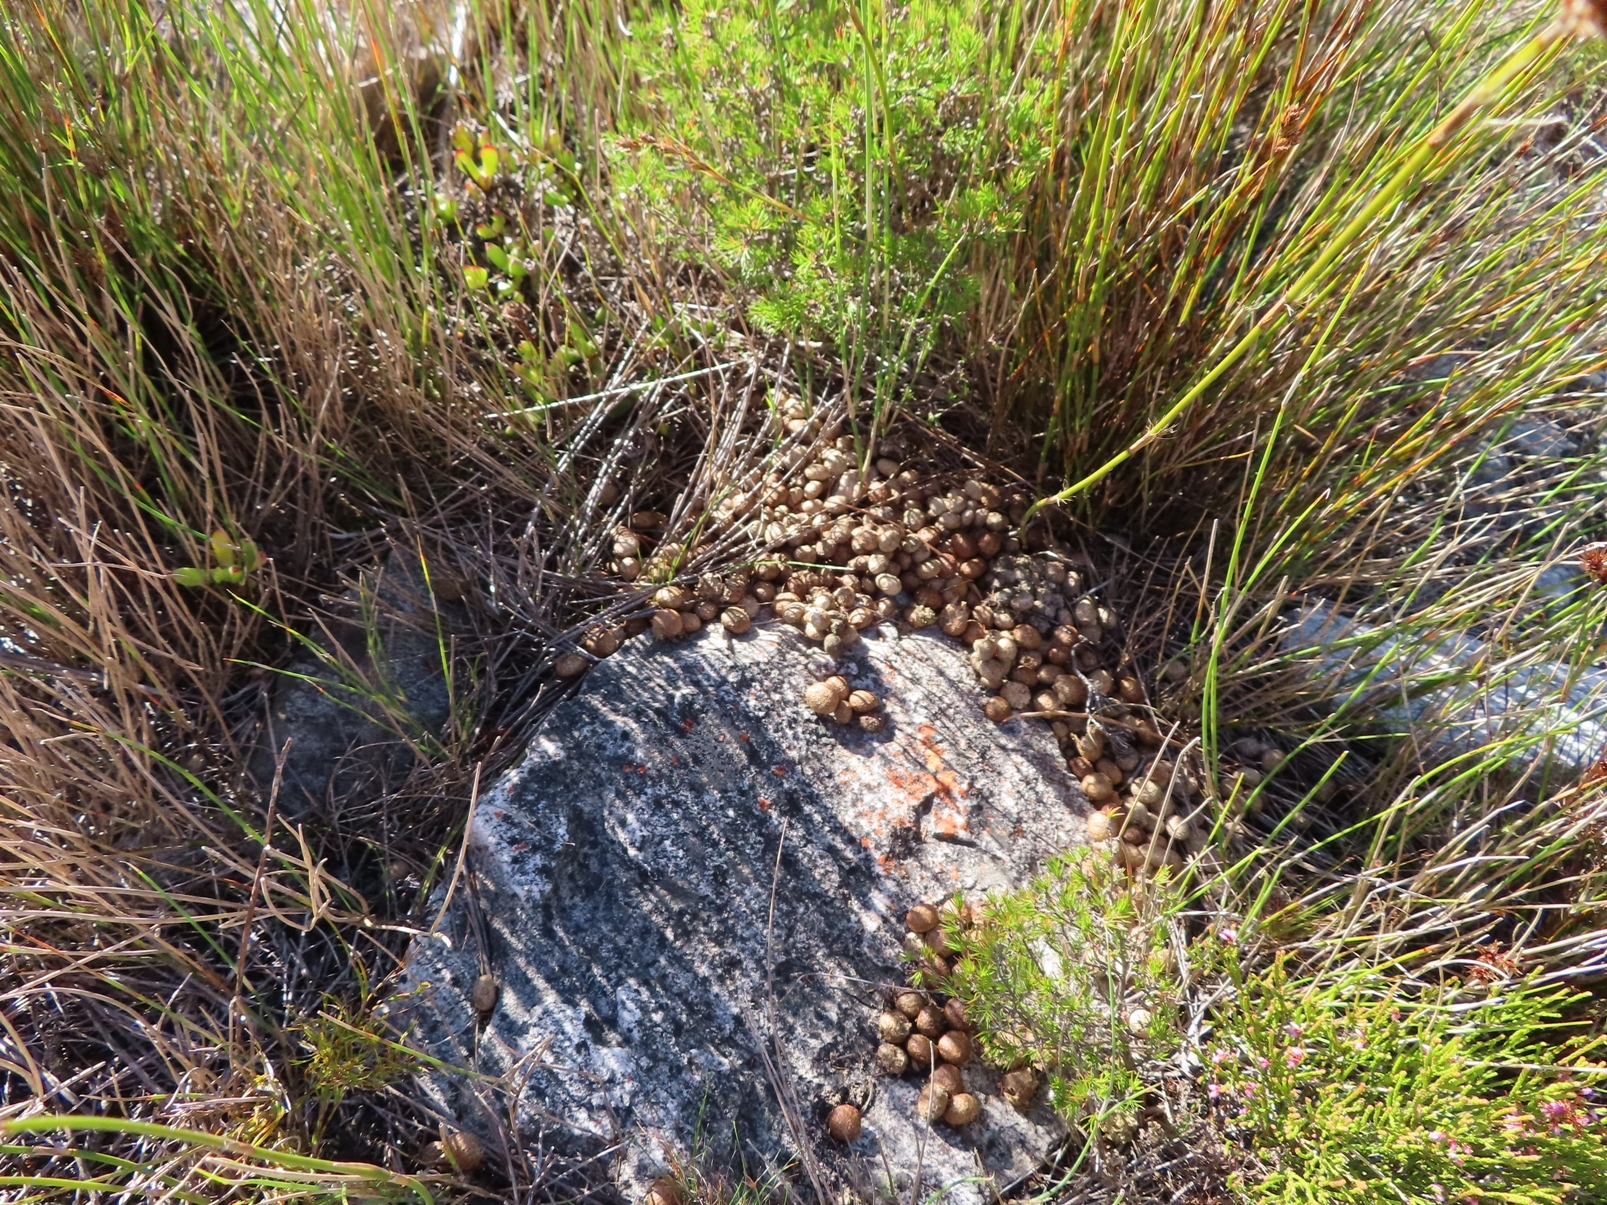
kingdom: Animalia
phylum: Chordata
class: Mammalia
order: Lagomorpha
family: Leporidae
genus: Pronolagus
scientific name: Pronolagus saundersiae
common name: Hewitt's red rock hare
